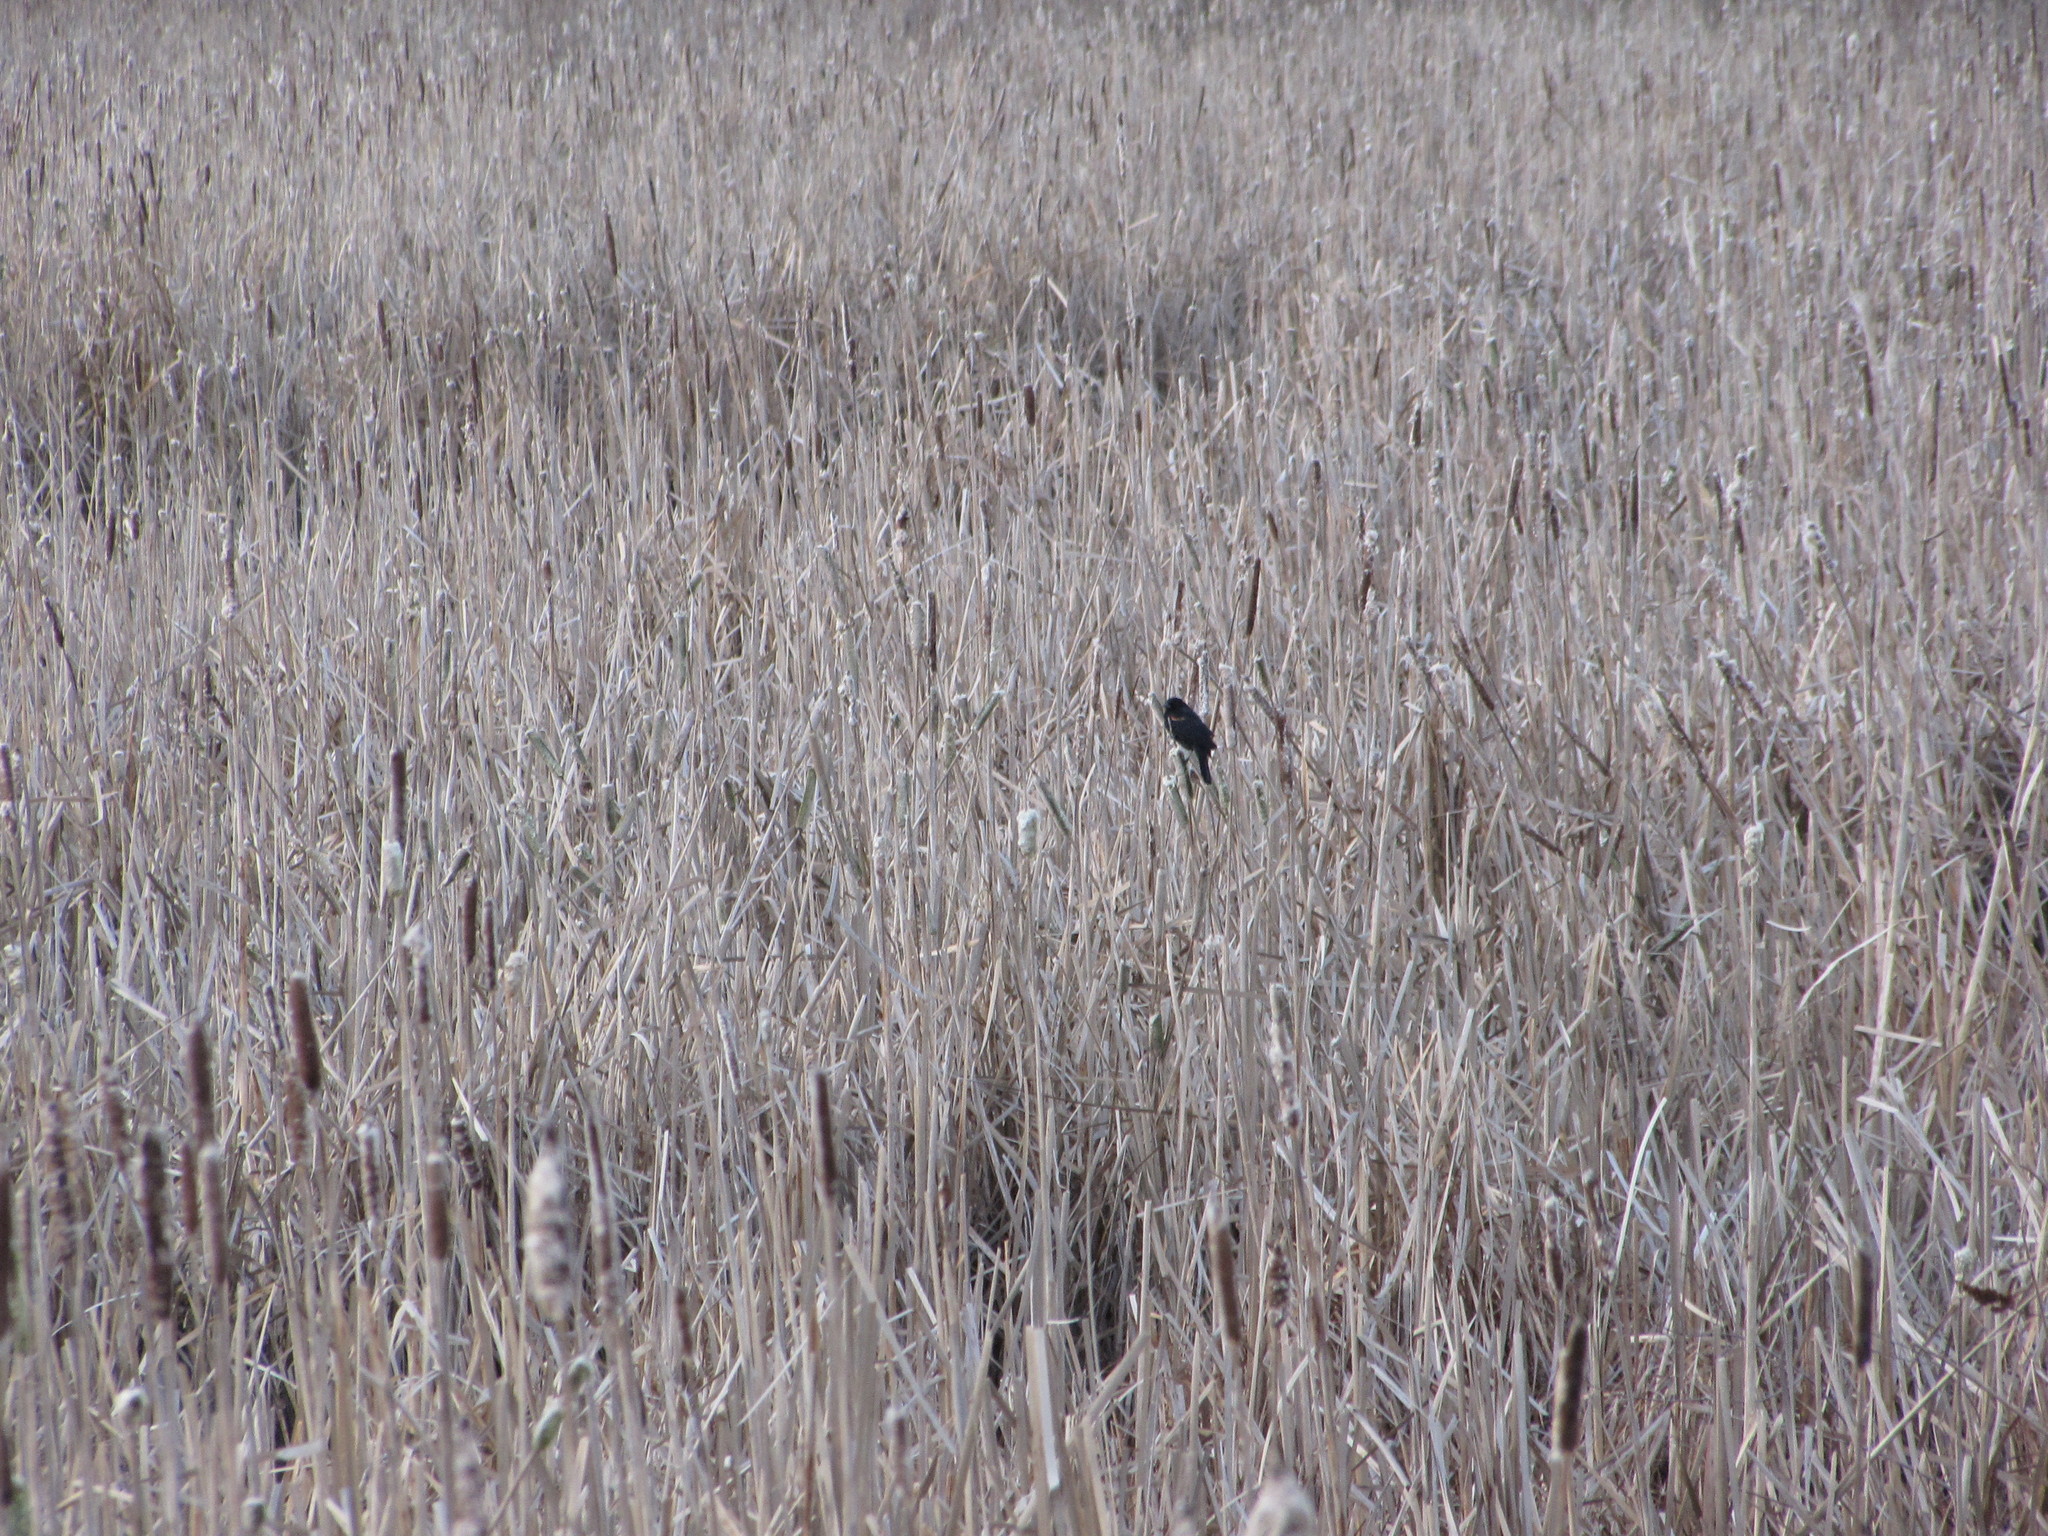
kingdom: Animalia
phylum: Chordata
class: Aves
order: Passeriformes
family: Icteridae
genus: Agelaius
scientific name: Agelaius phoeniceus
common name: Red-winged blackbird
